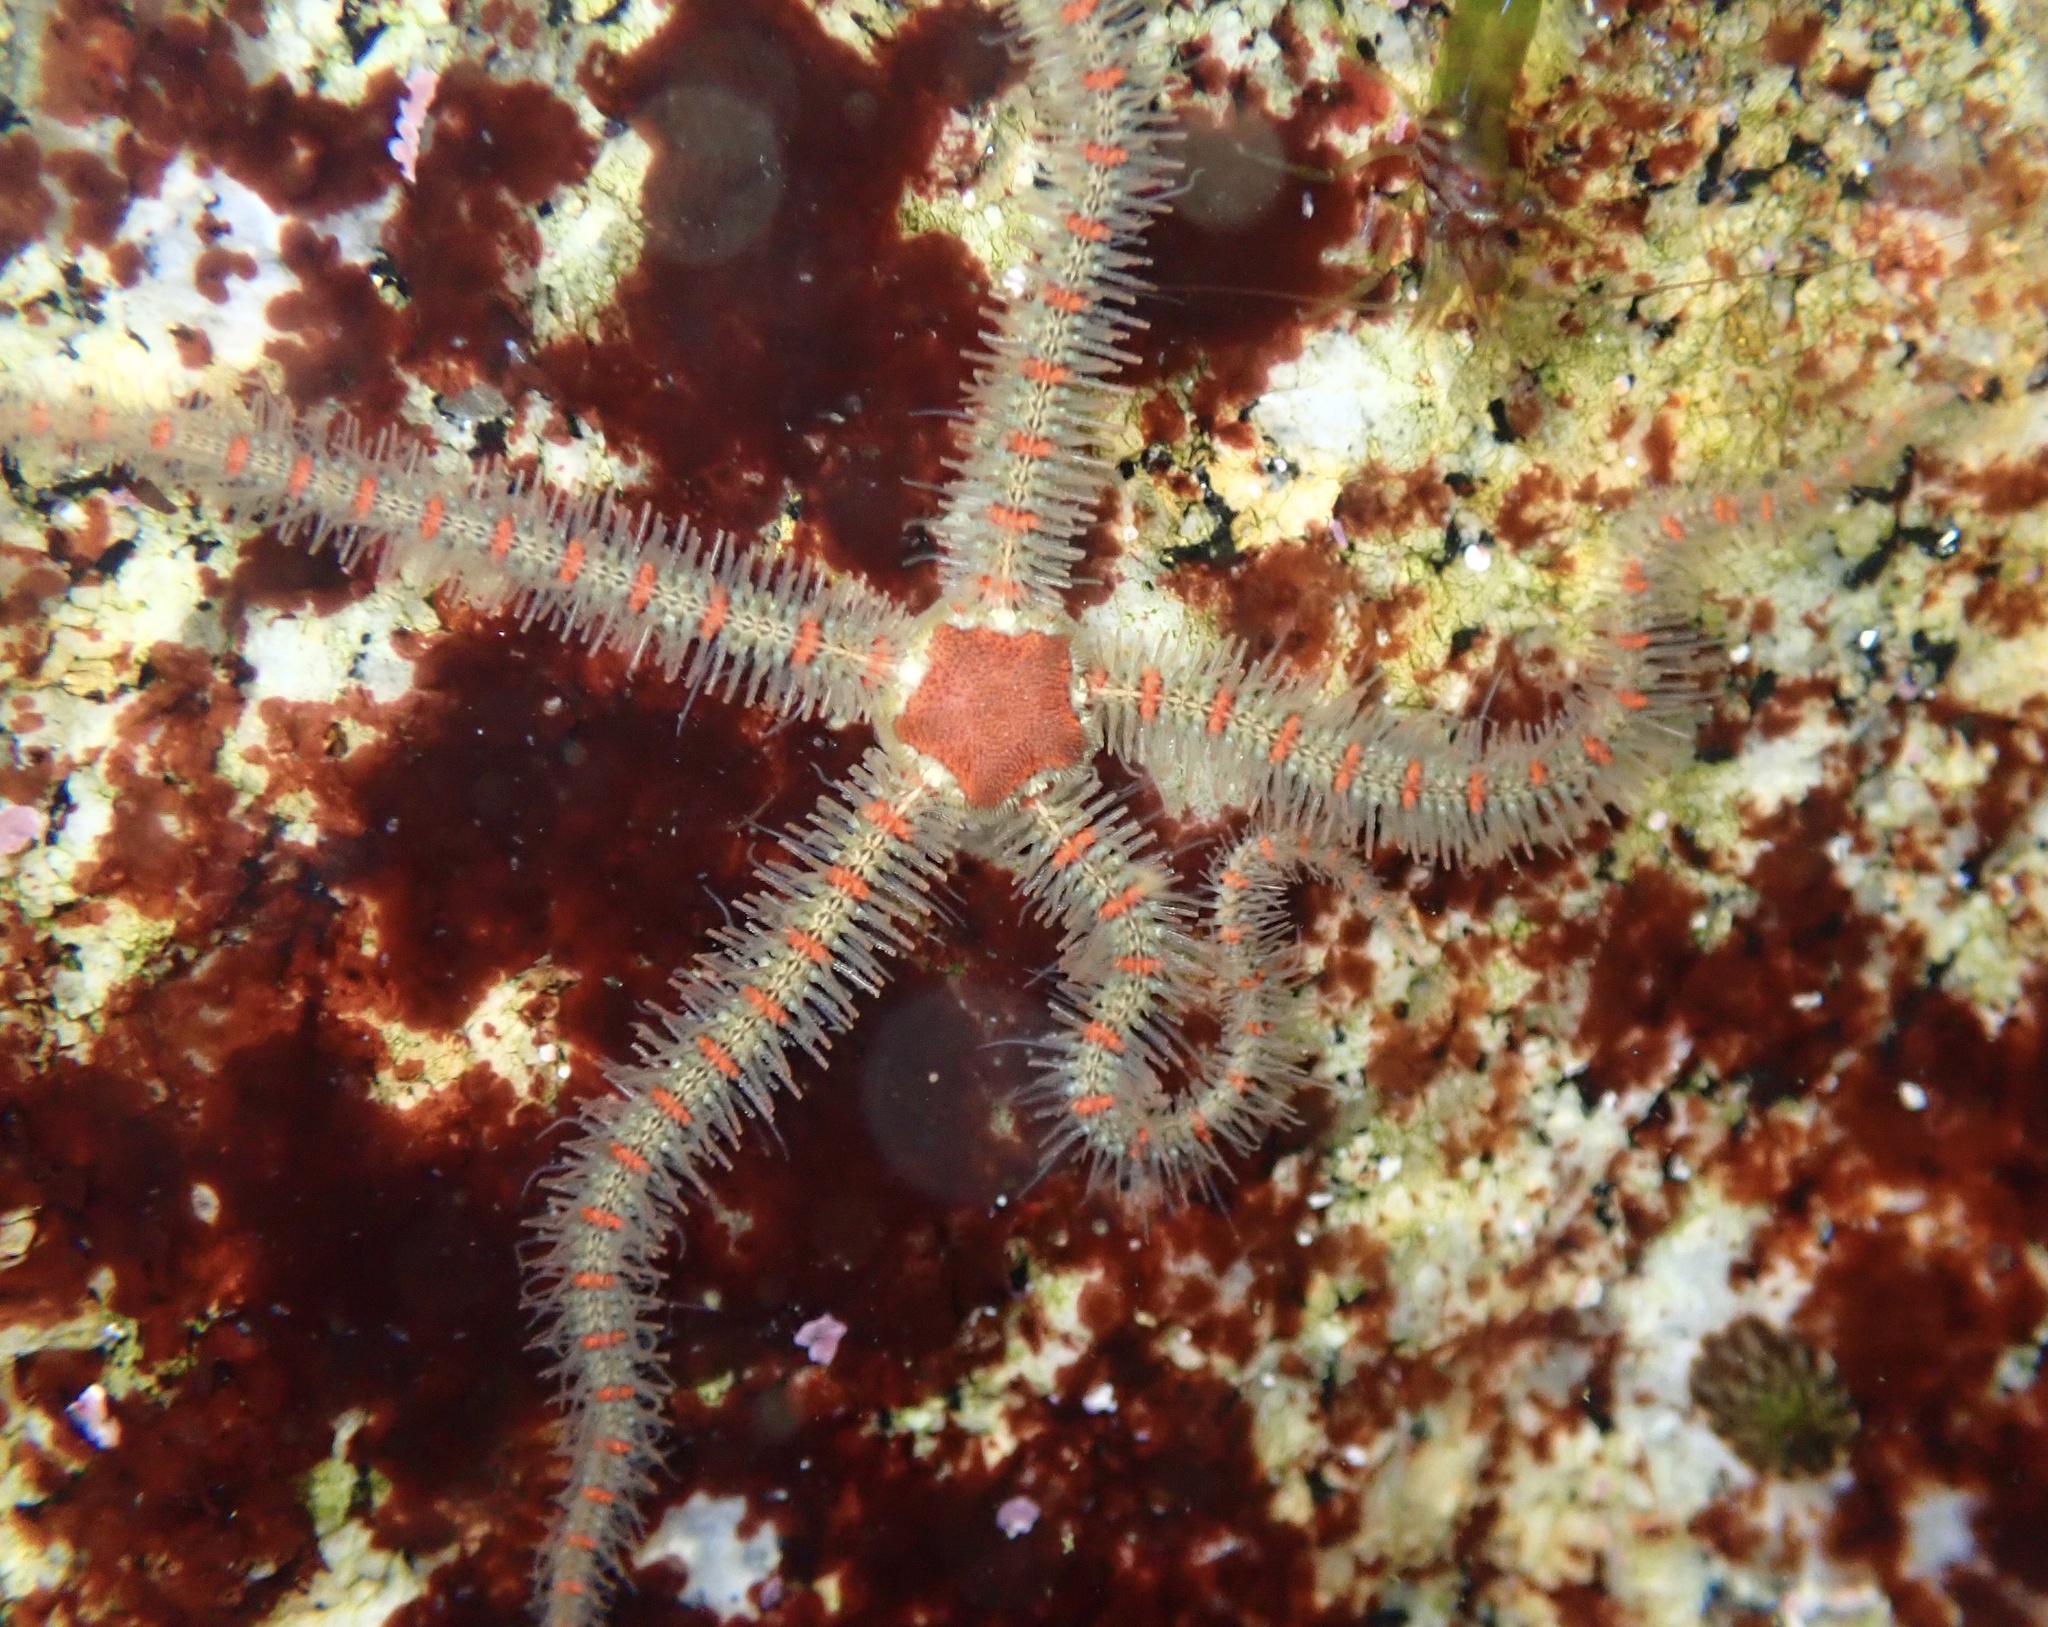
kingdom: Animalia
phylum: Echinodermata
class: Ophiuroidea
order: Amphilepidida
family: Ophiotrichidae
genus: Ophiothrix
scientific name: Ophiothrix spiculata
